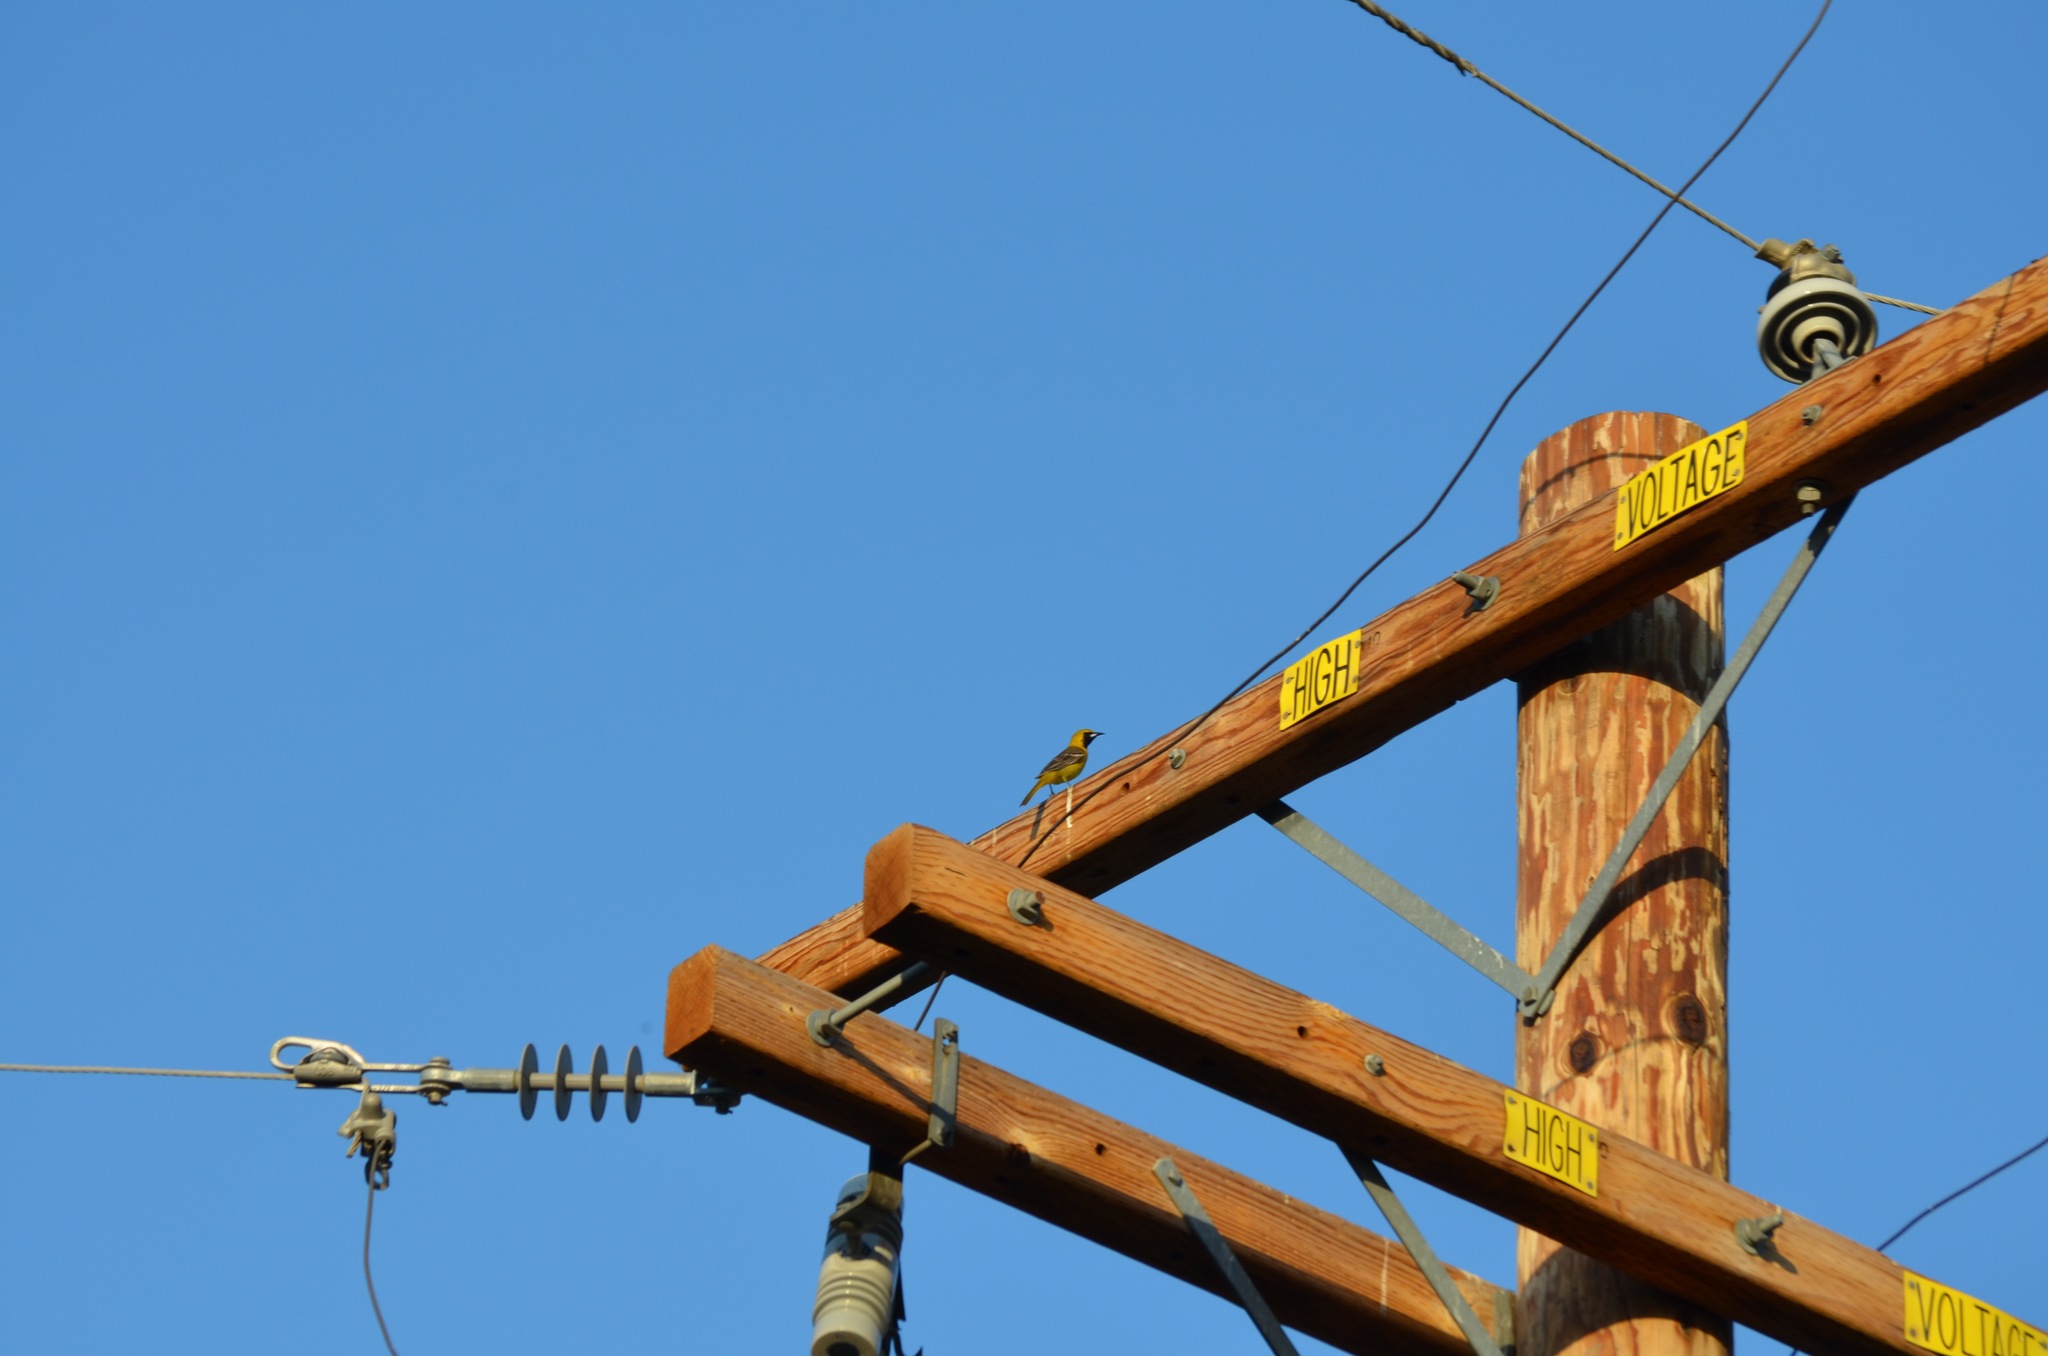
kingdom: Animalia
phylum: Chordata
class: Aves
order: Passeriformes
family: Icteridae
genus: Icterus
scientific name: Icterus cucullatus
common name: Hooded oriole
